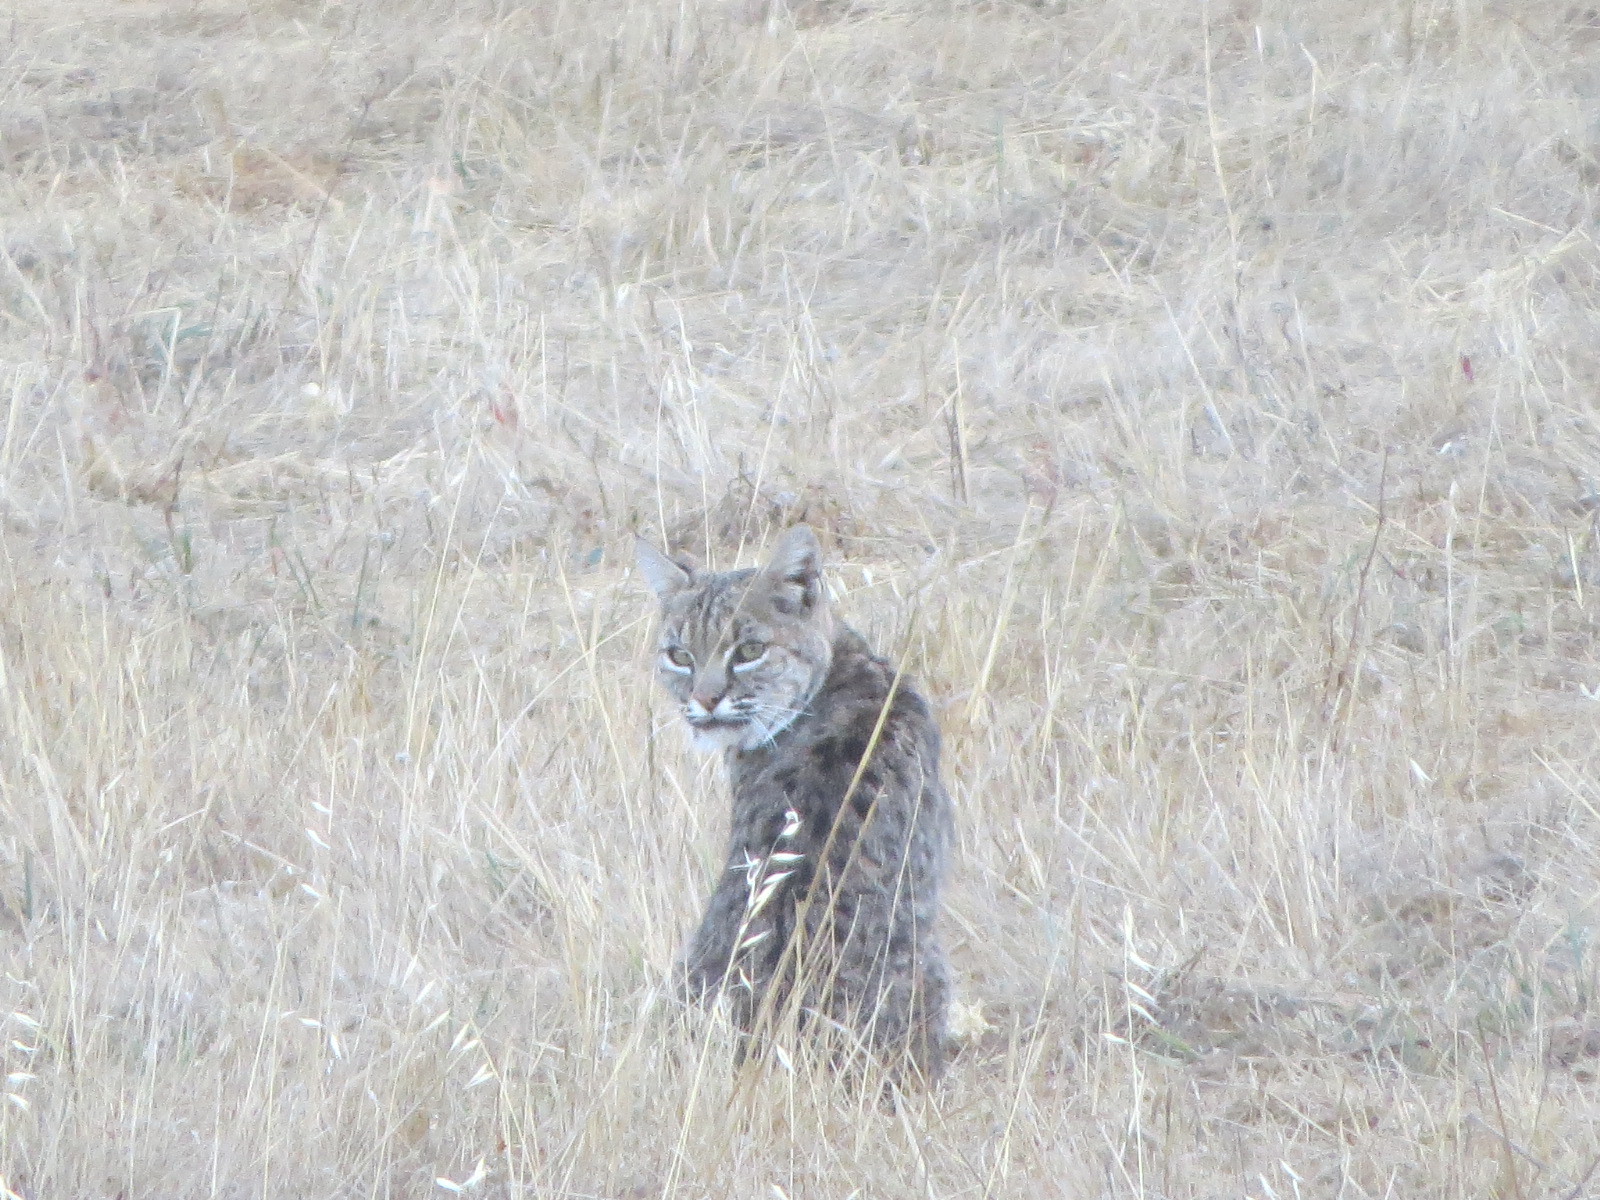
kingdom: Animalia
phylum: Chordata
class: Mammalia
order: Carnivora
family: Felidae
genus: Lynx
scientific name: Lynx rufus
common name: Bobcat
